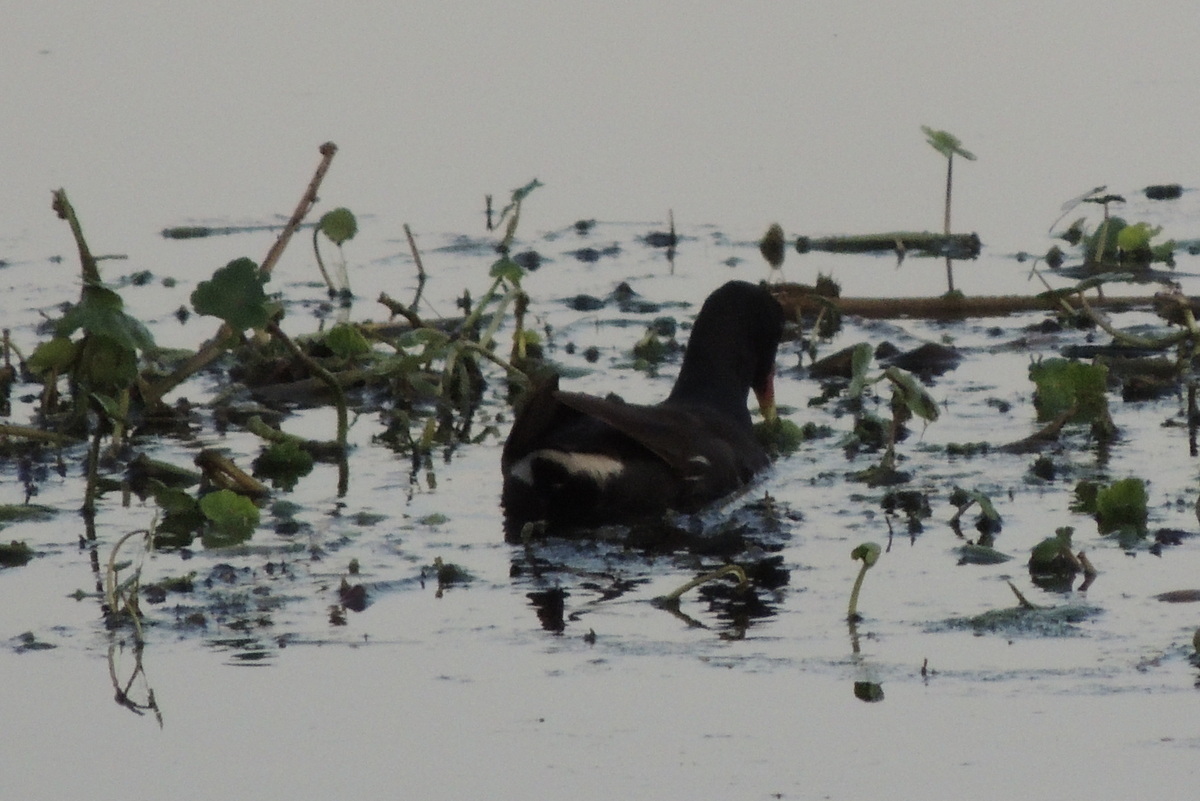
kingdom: Animalia
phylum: Chordata
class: Aves
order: Gruiformes
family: Rallidae
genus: Gallinula
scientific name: Gallinula chloropus
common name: Common moorhen
